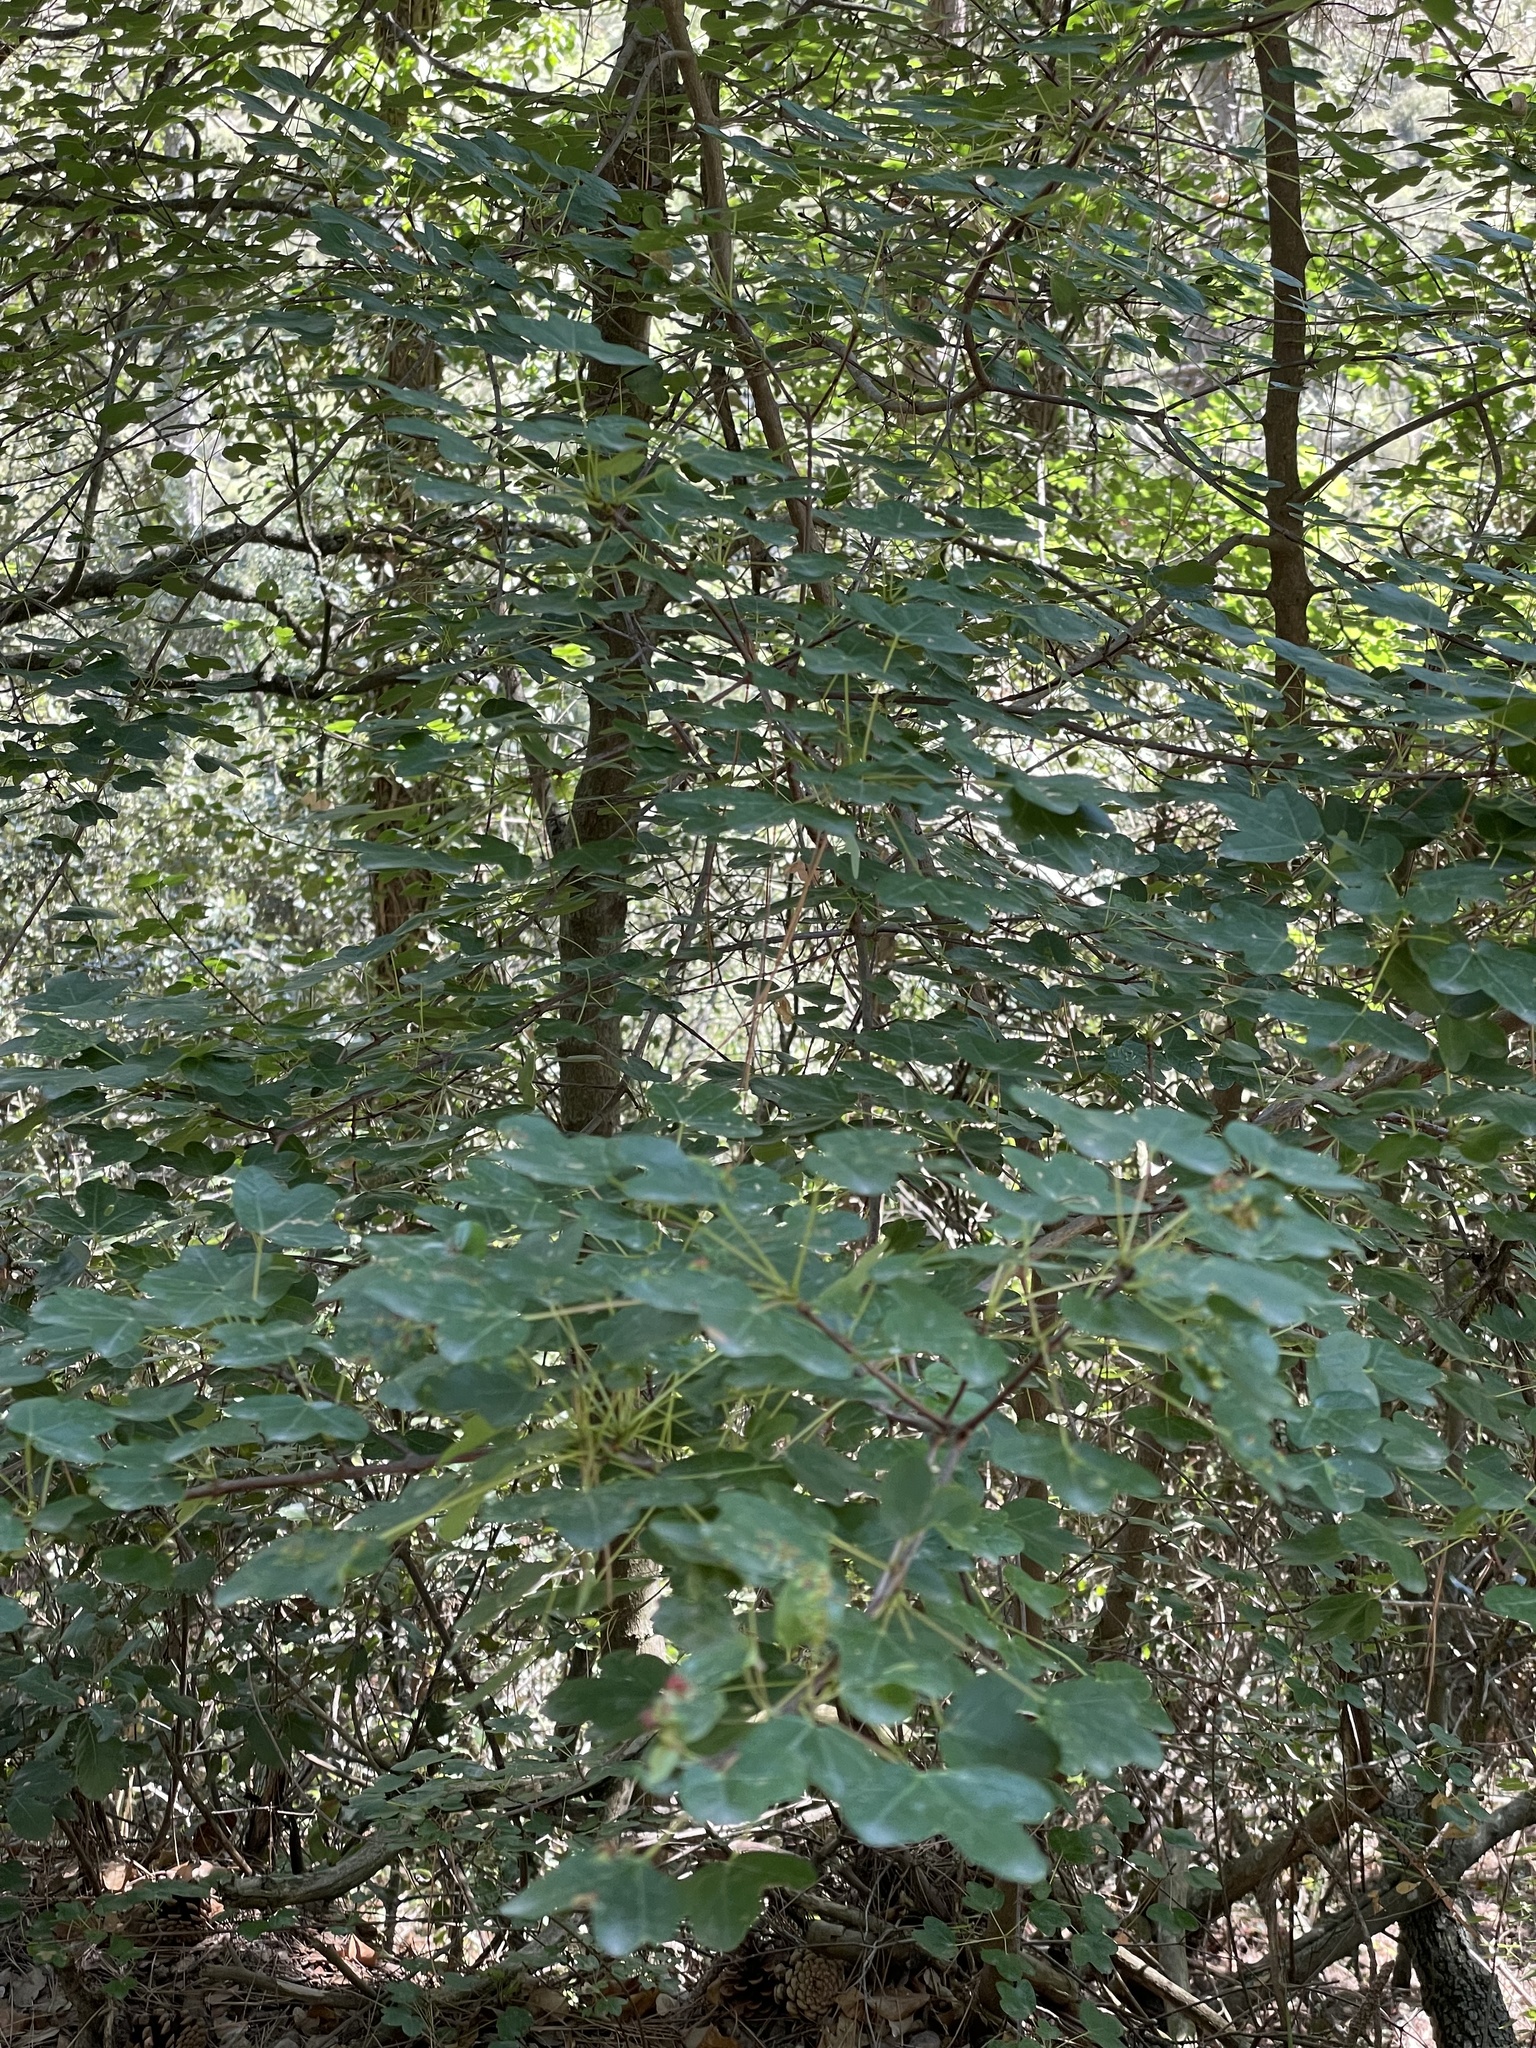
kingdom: Plantae
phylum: Tracheophyta
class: Magnoliopsida
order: Sapindales
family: Sapindaceae
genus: Acer
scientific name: Acer monspessulanum
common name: Montpellier maple
